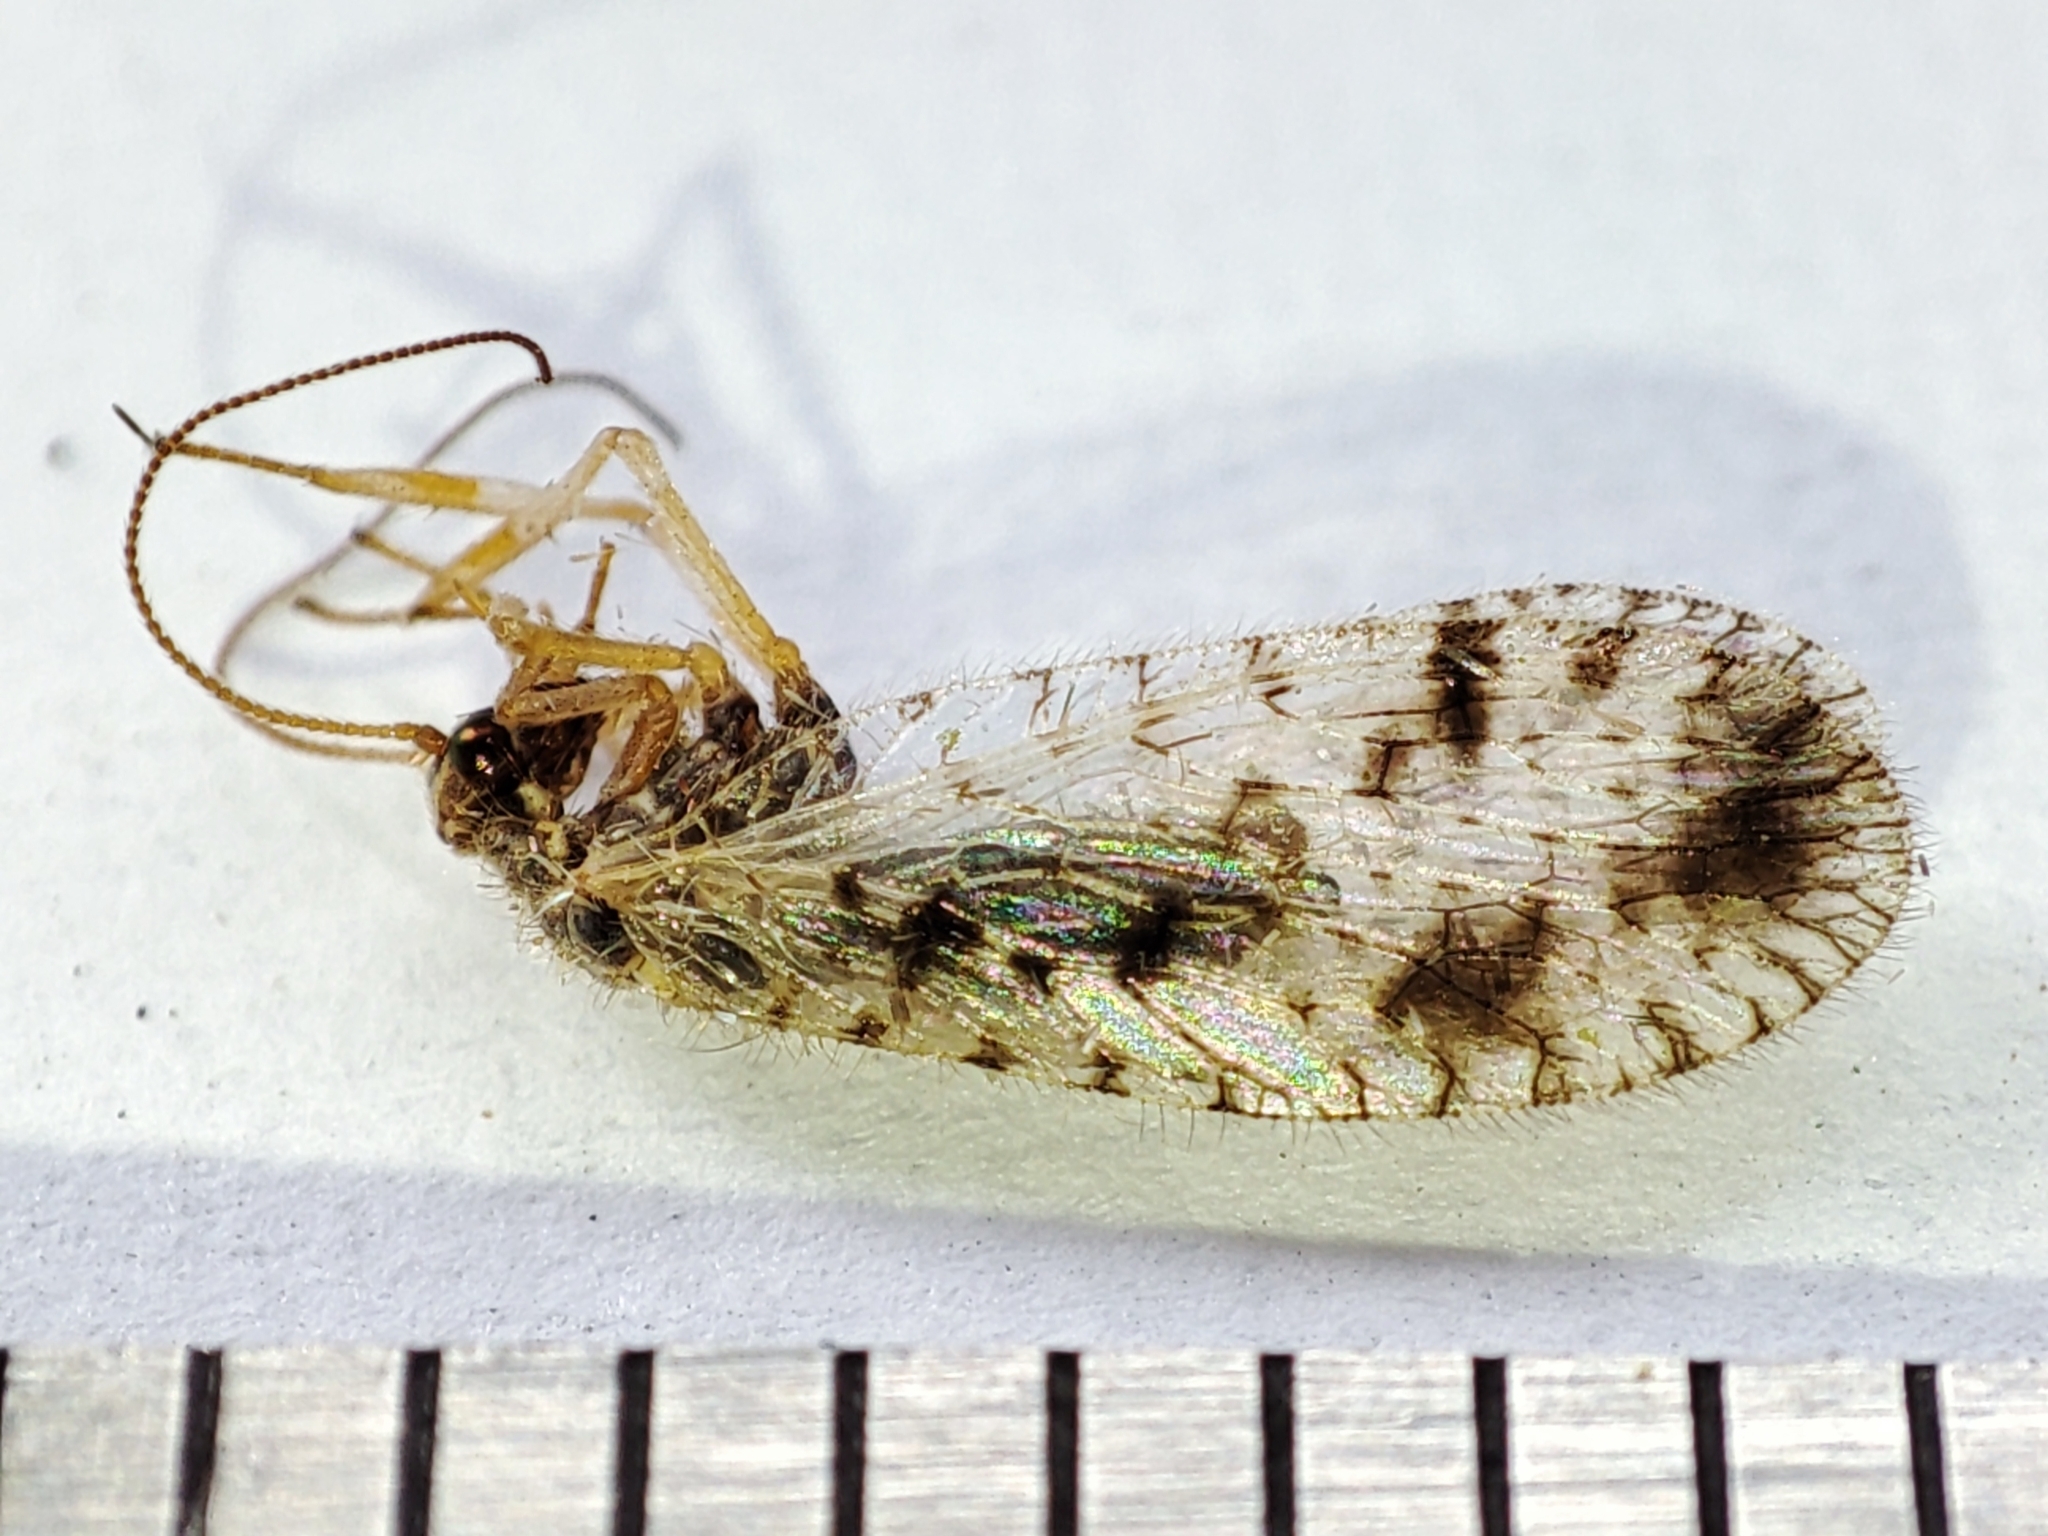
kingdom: Animalia
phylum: Arthropoda
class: Insecta
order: Neuroptera
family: Hemerobiidae
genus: Micromus
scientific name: Micromus variegatus
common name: Brown lacewing
